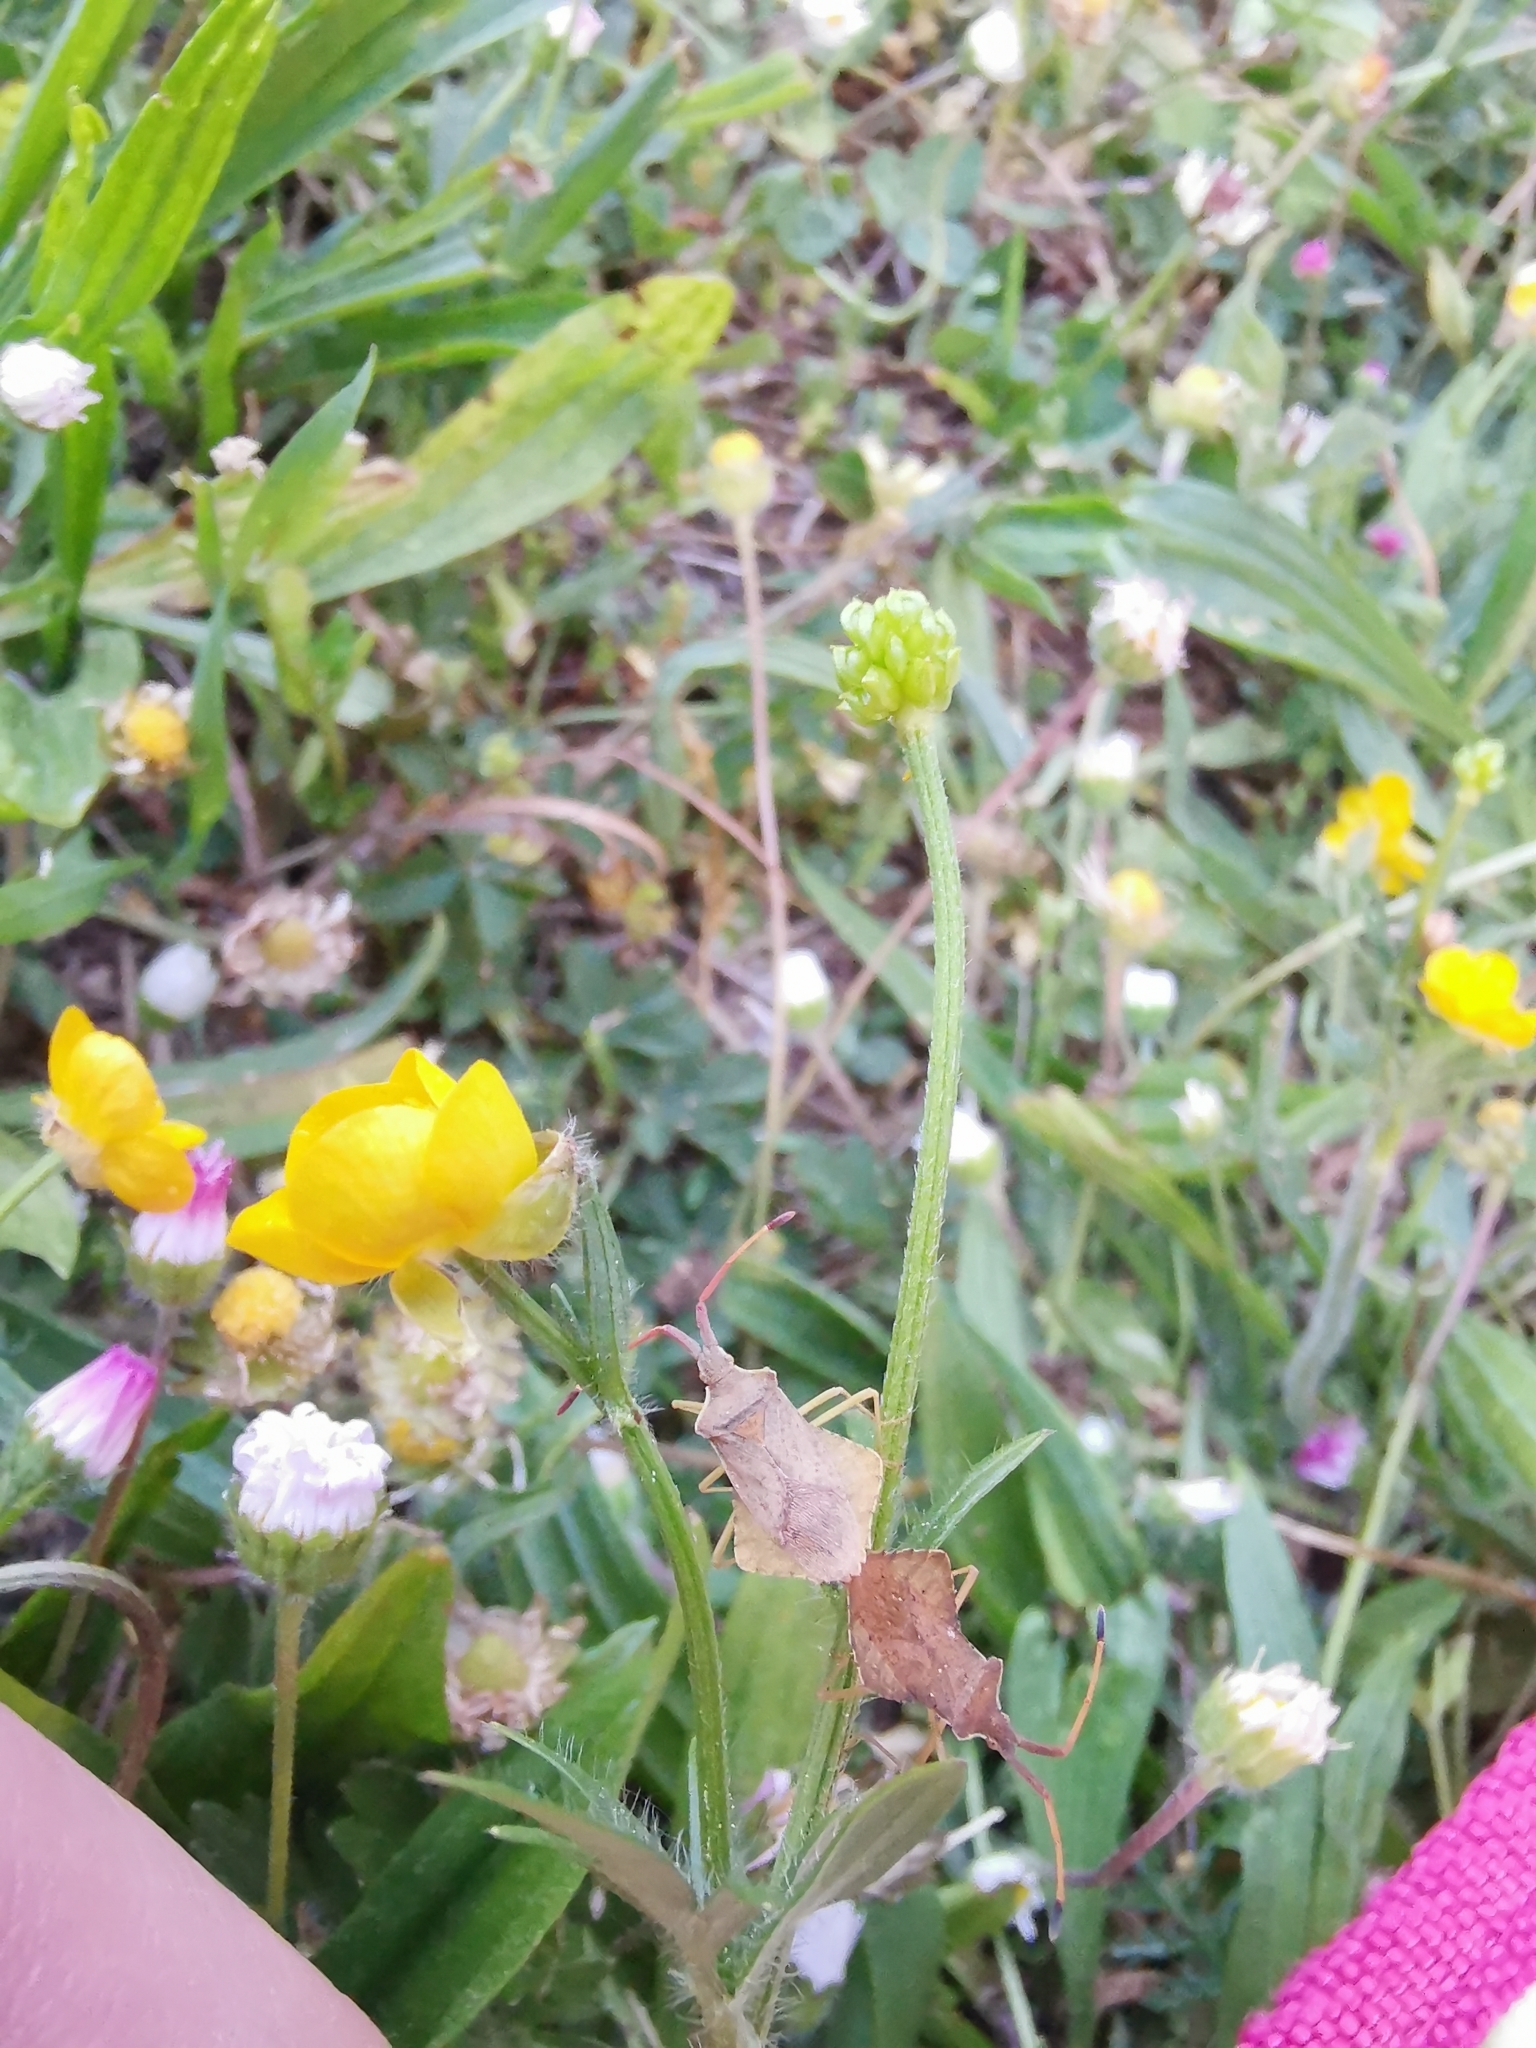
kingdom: Animalia
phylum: Arthropoda
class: Insecta
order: Hemiptera
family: Coreidae
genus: Syromastus
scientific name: Syromastus rhombeus
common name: Rhombic leatherbug
